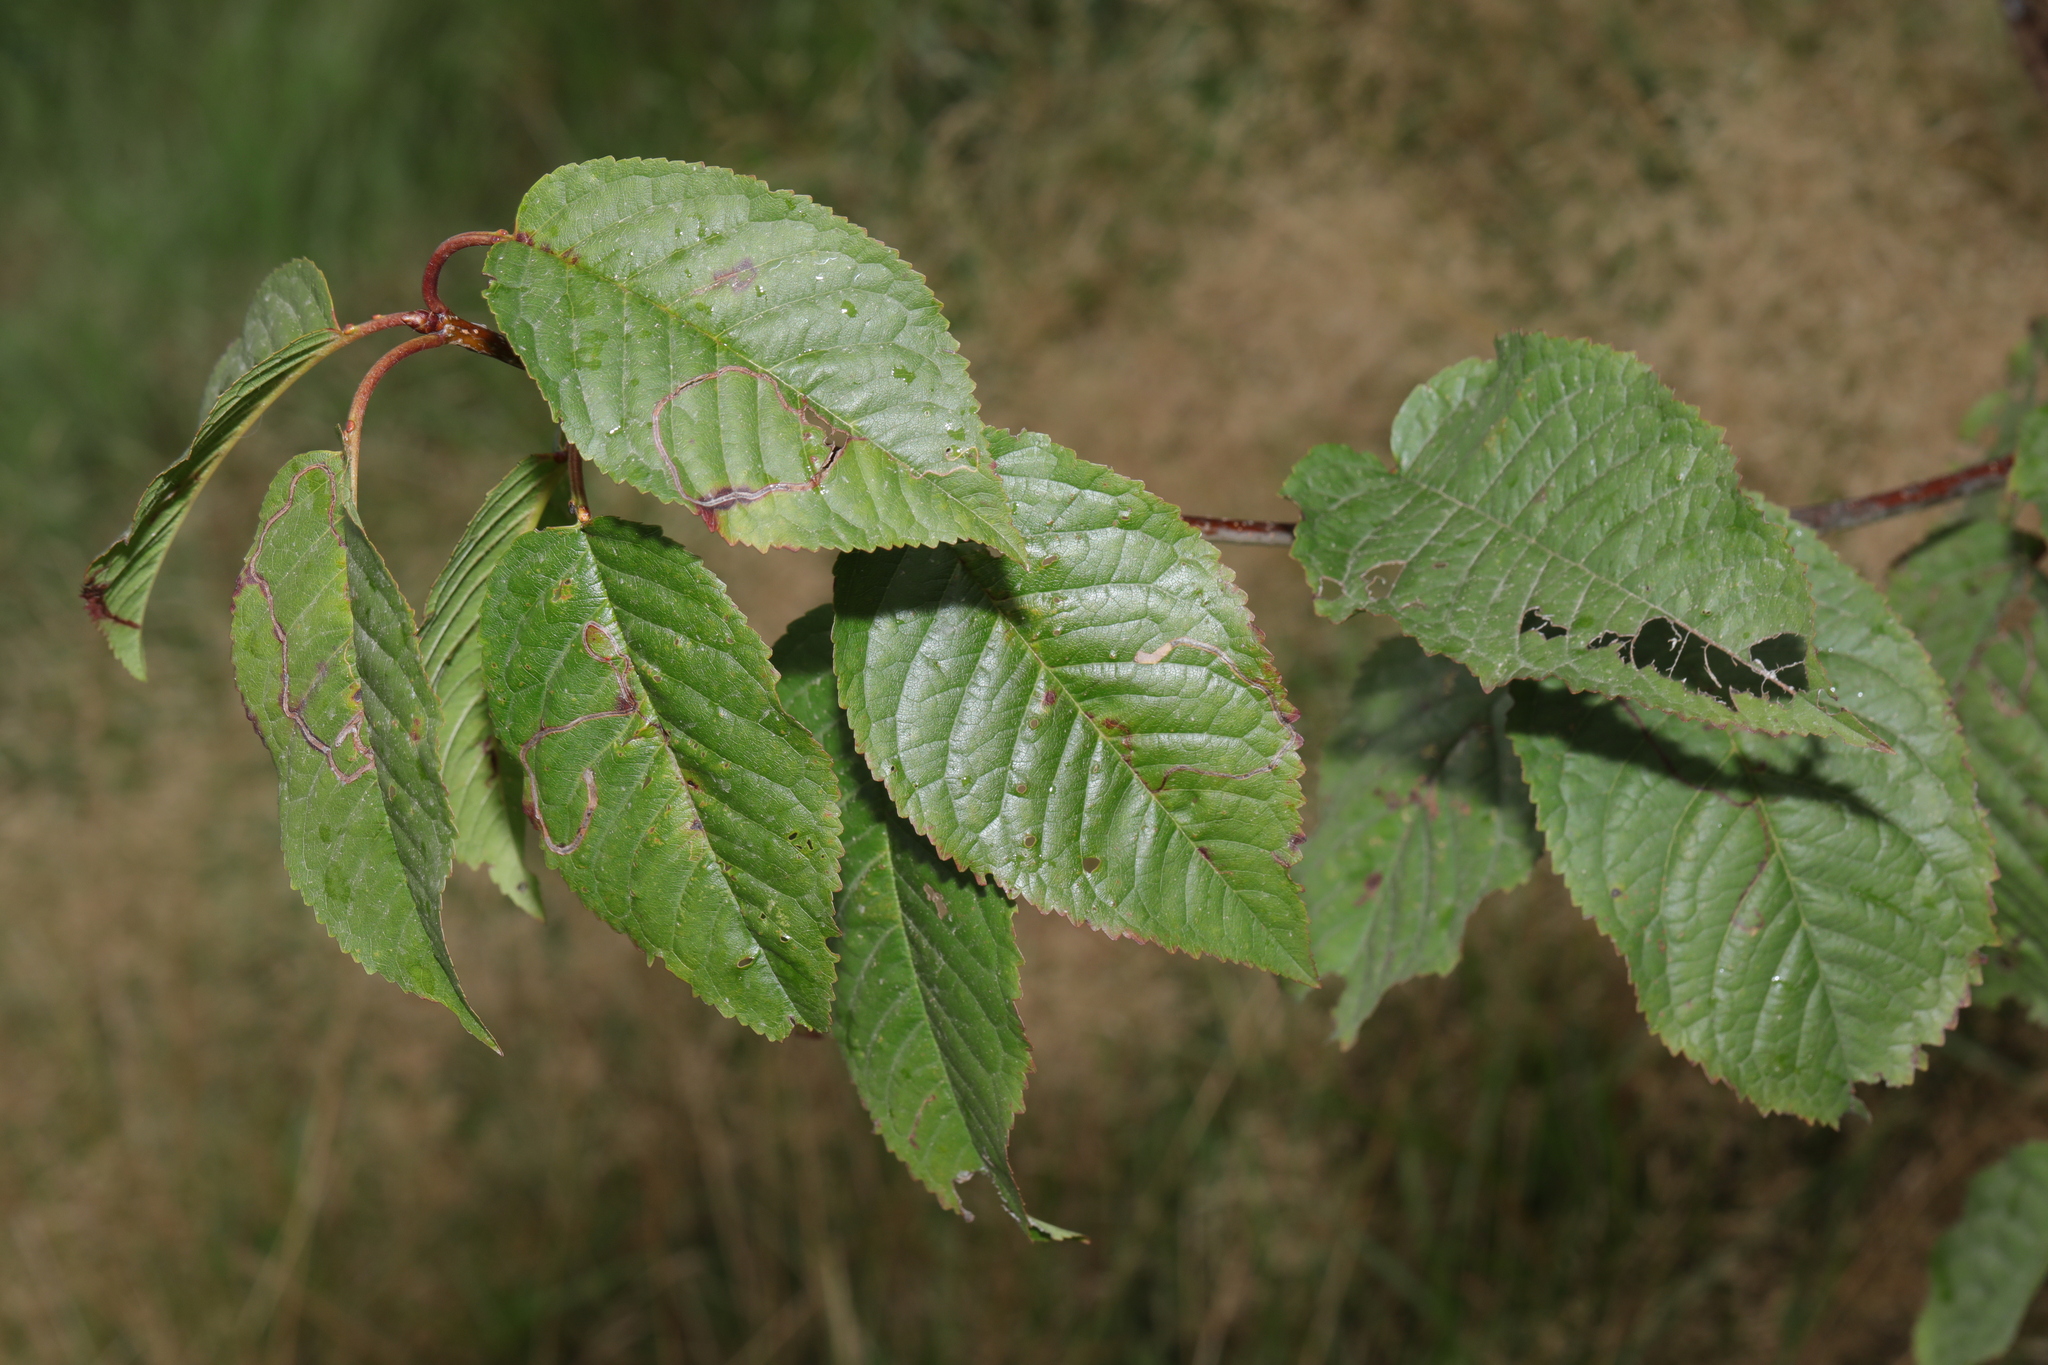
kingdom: Plantae
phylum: Tracheophyta
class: Magnoliopsida
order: Rosales
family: Rosaceae
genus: Prunus
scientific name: Prunus avium
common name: Sweet cherry
